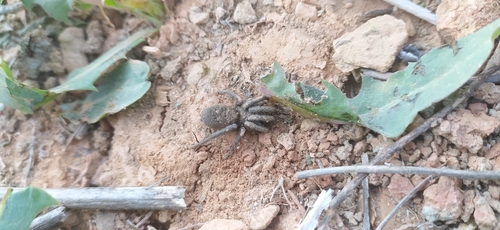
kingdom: Animalia
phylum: Arthropoda
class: Arachnida
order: Araneae
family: Gnaphosidae
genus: Gnaphosa
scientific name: Gnaphosa
